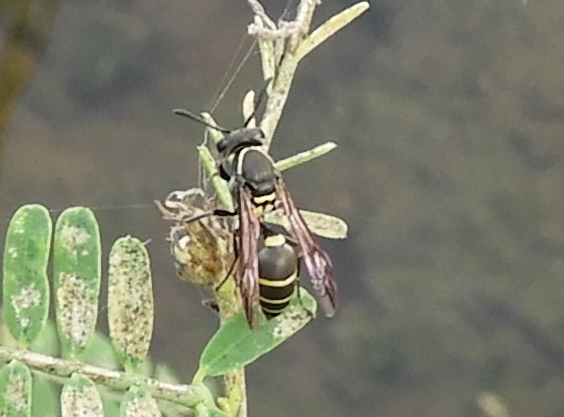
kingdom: Animalia
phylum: Arthropoda
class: Insecta
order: Hymenoptera
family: Eumenidae
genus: Polybia
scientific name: Polybia occidentalis
